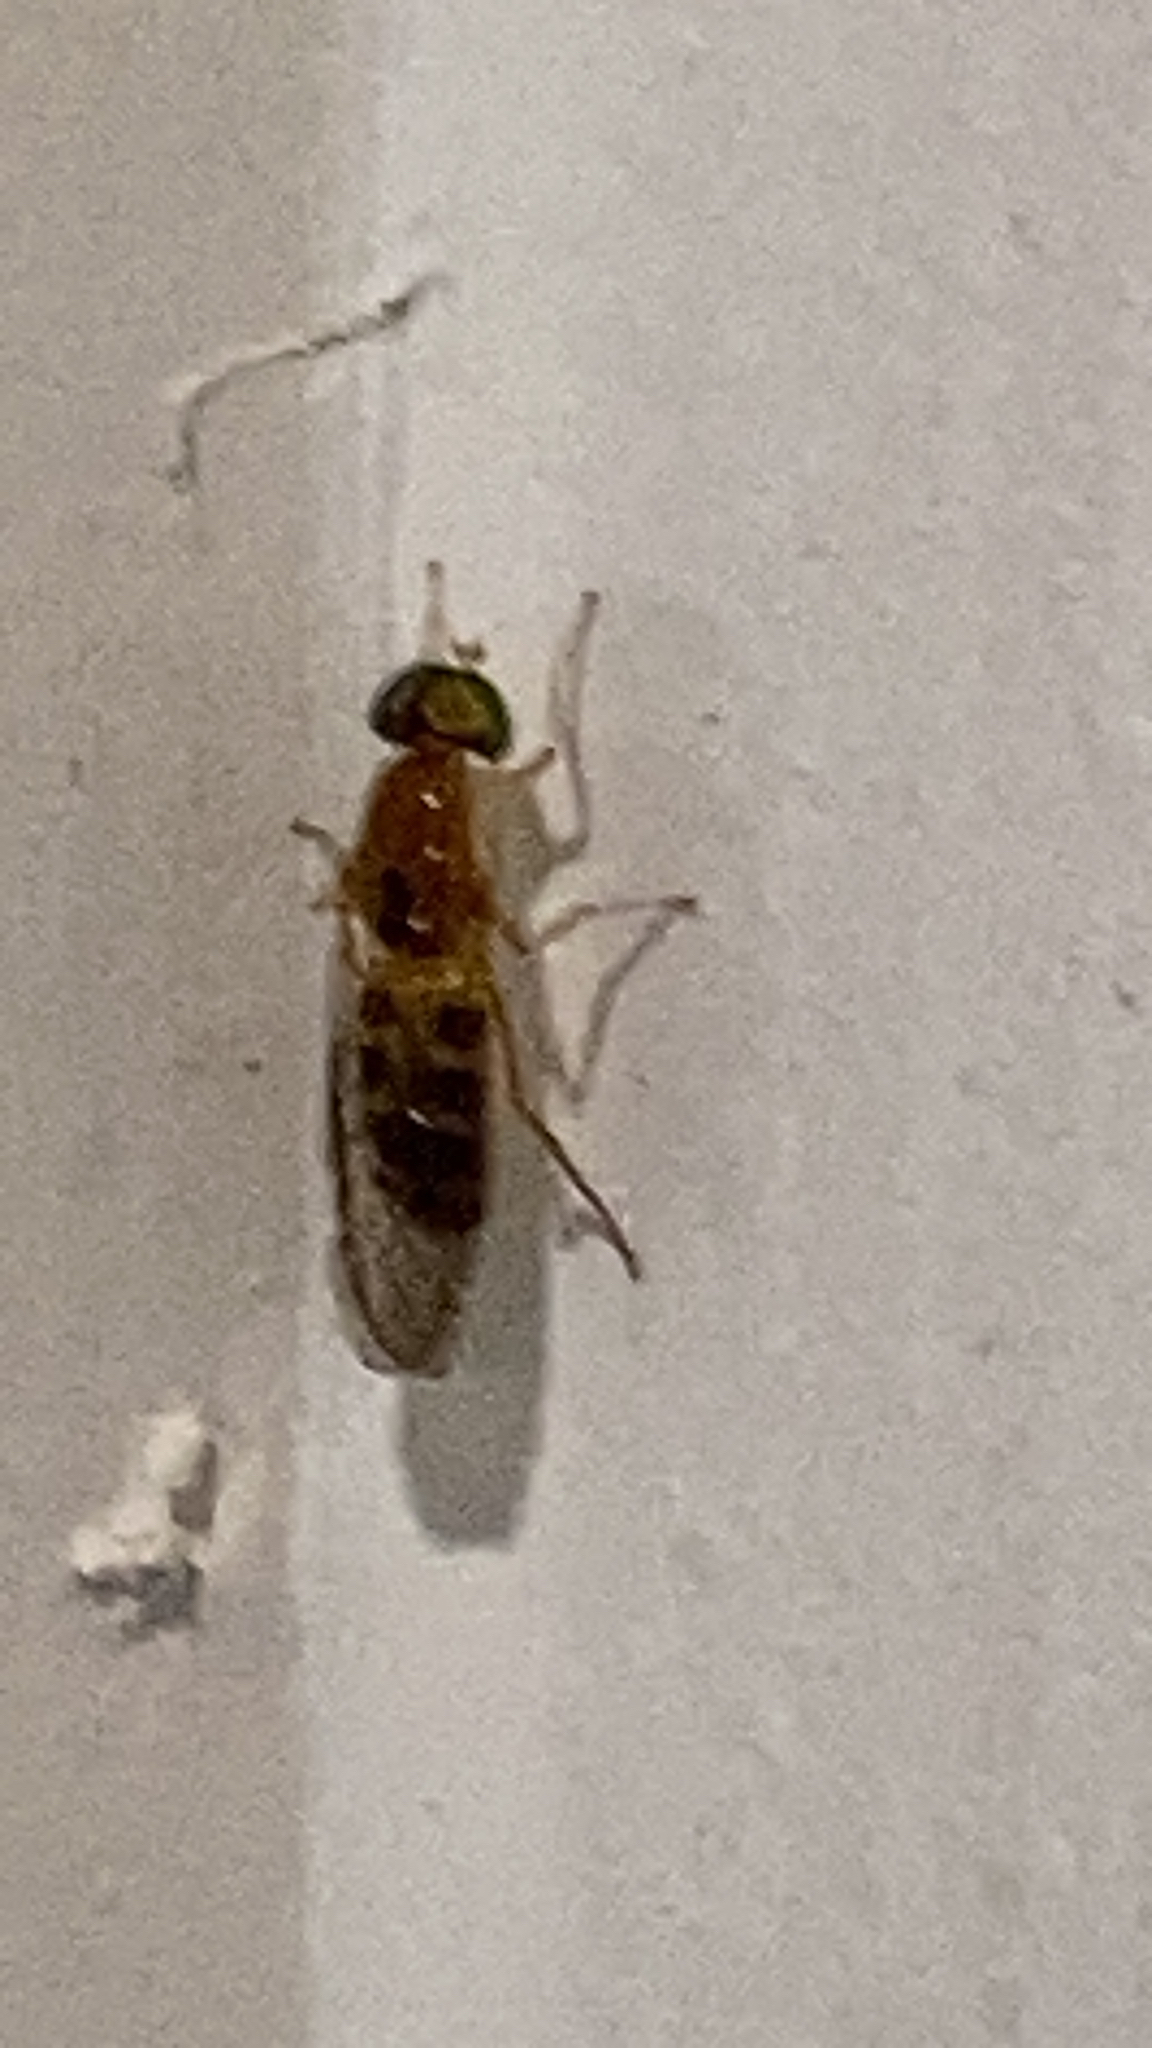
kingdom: Animalia
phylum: Arthropoda
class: Insecta
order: Diptera
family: Stratiomyidae
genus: Ptecticus
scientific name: Ptecticus trivittatus
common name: Compost fly
